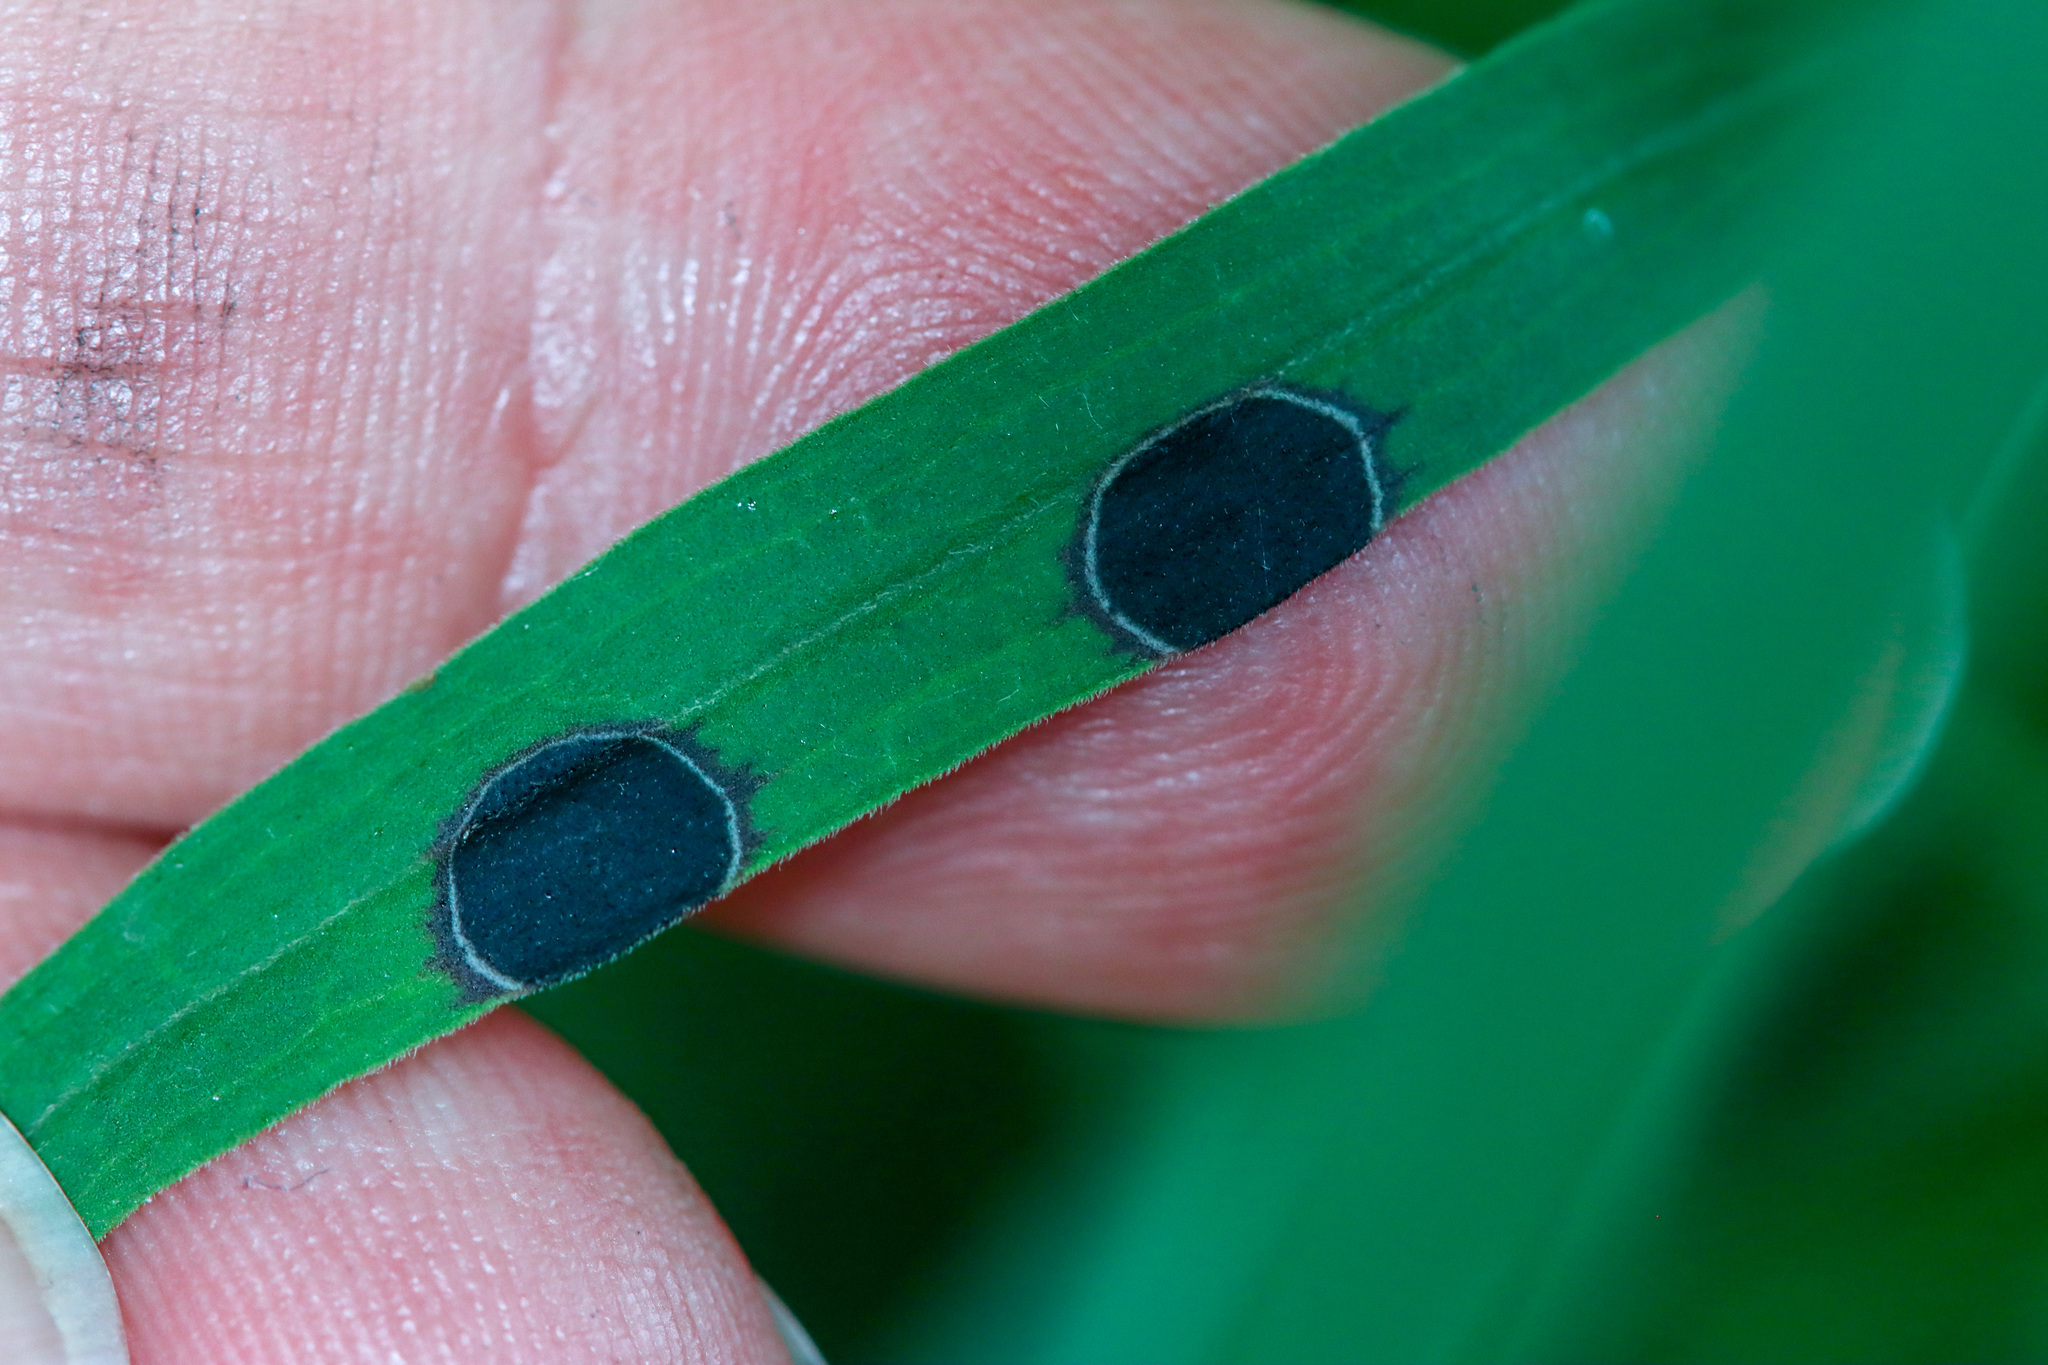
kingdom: Animalia
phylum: Arthropoda
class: Insecta
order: Diptera
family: Cecidomyiidae
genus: Asteromyia
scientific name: Asteromyia euthamiae
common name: Euthamia leaf gall midge
